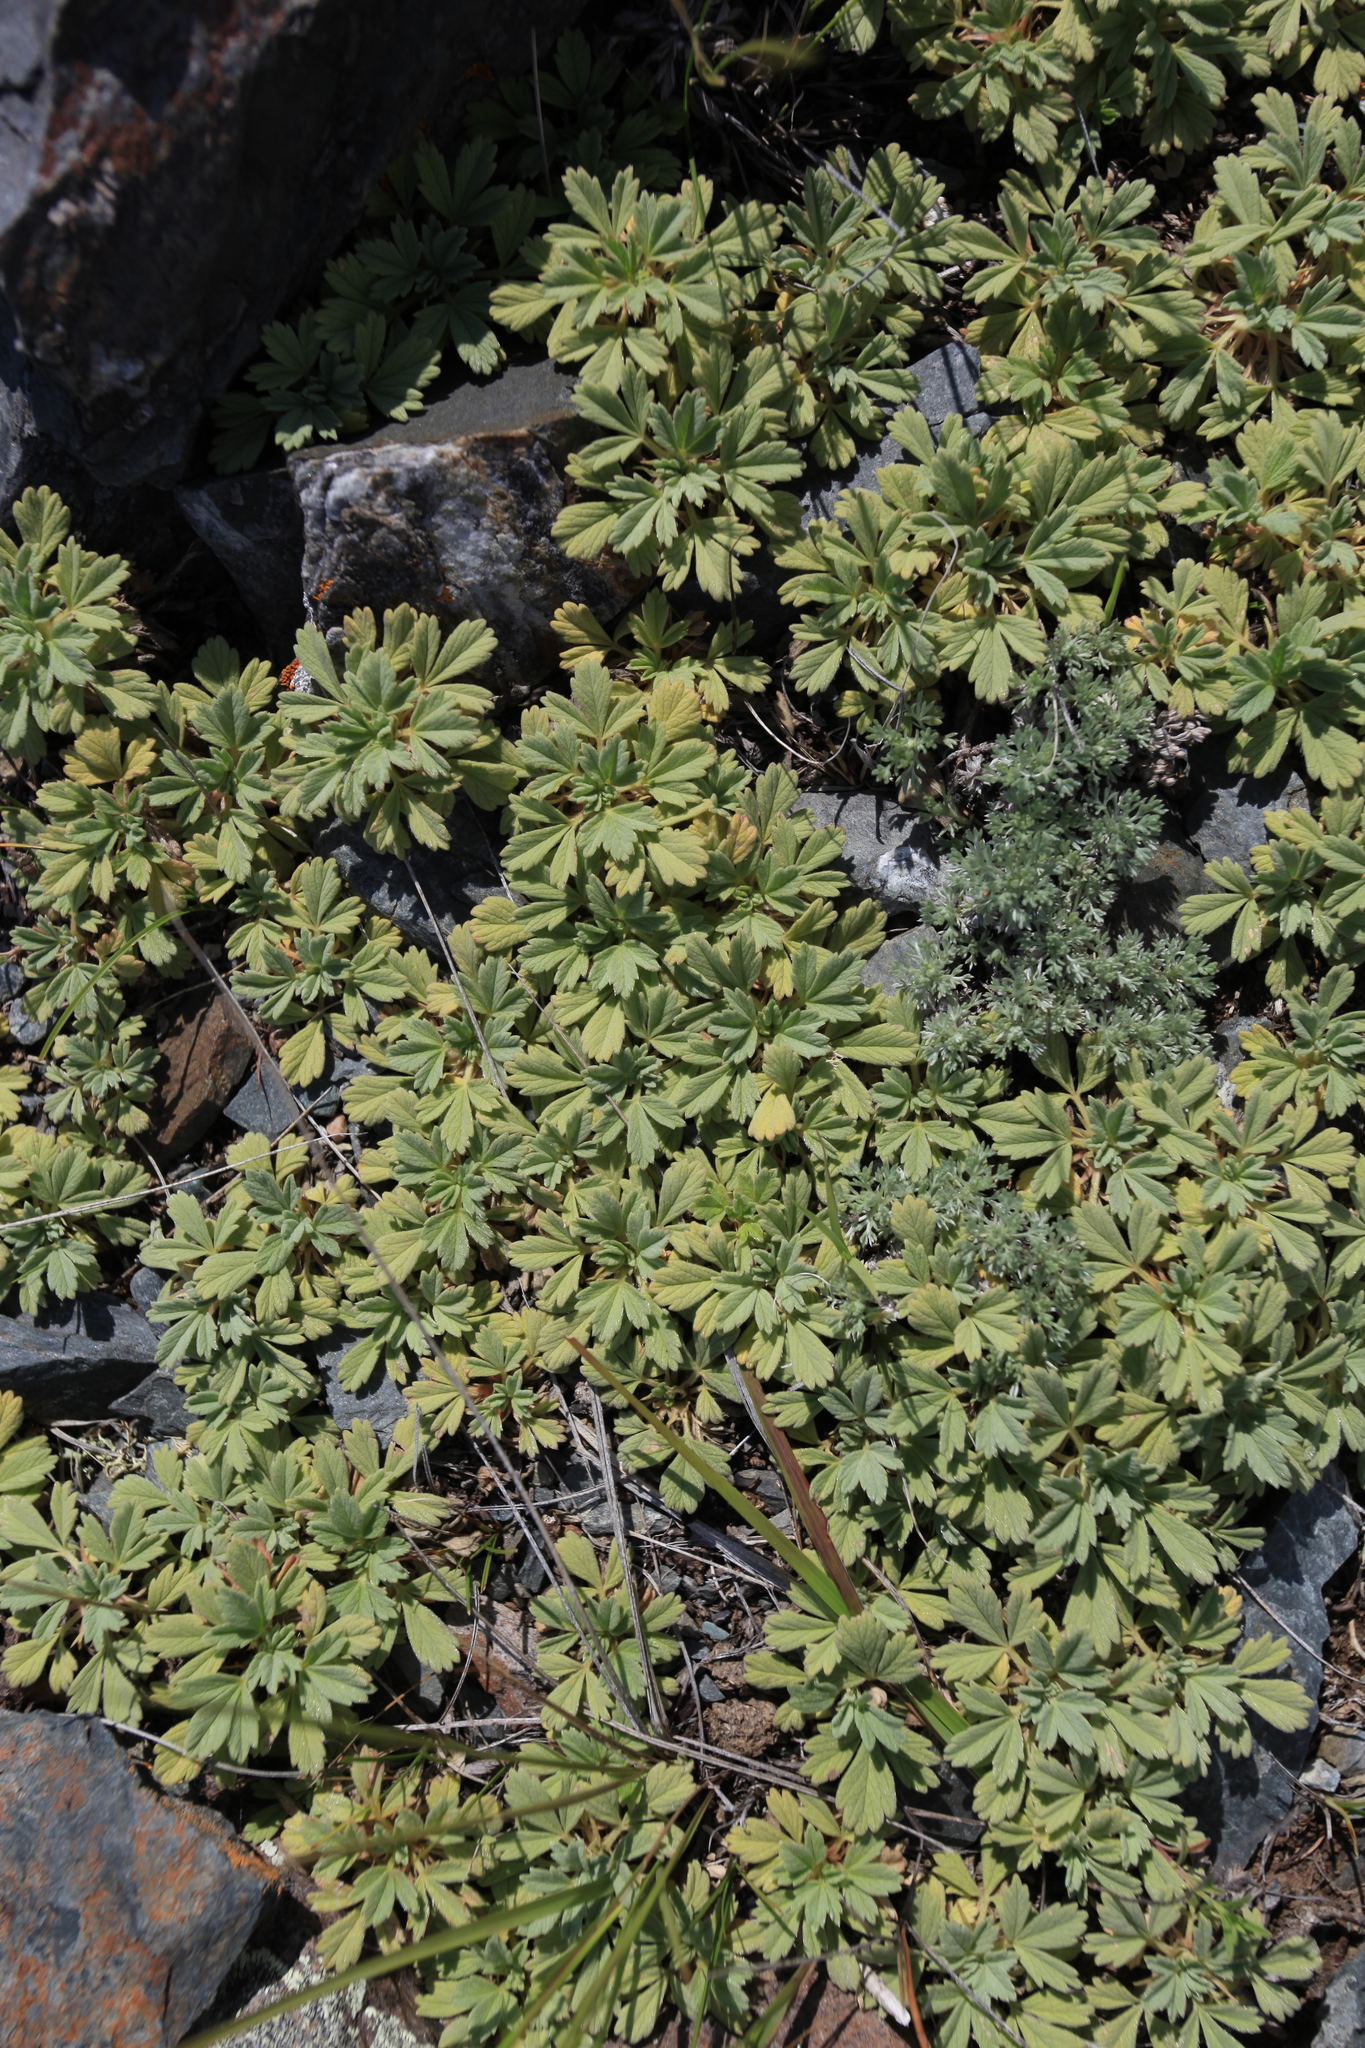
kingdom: Plantae
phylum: Tracheophyta
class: Magnoliopsida
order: Rosales
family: Rosaceae
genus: Potentilla
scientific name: Potentilla acaulis
